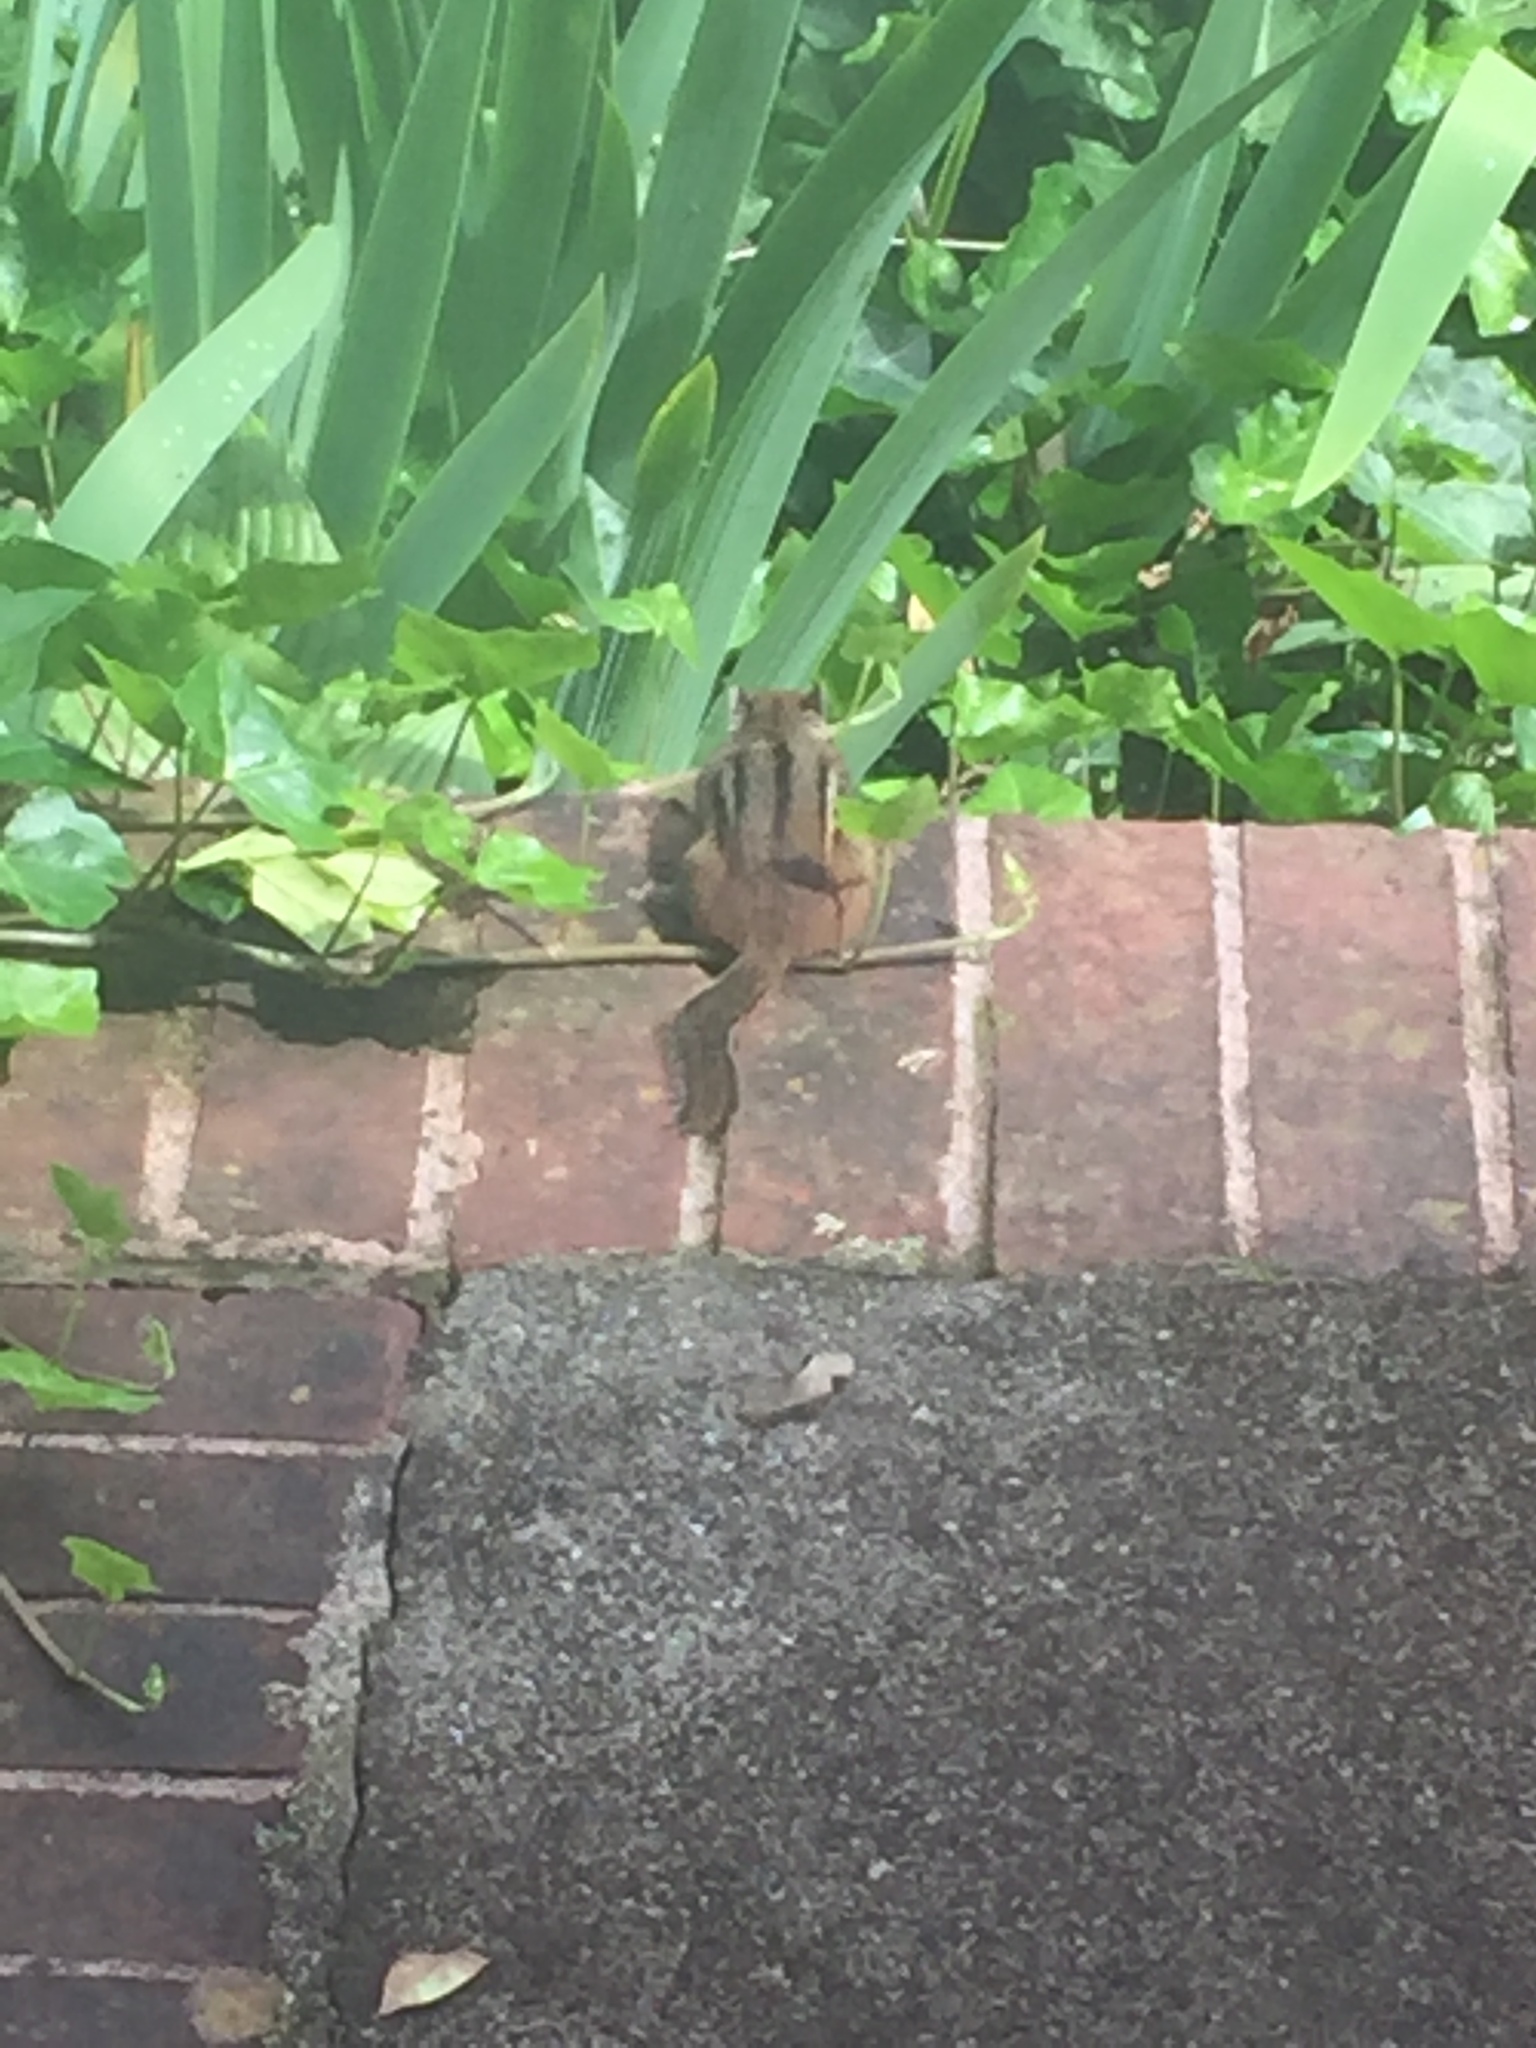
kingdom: Animalia
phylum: Chordata
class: Mammalia
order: Rodentia
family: Sciuridae
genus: Tamias
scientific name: Tamias striatus
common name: Eastern chipmunk
